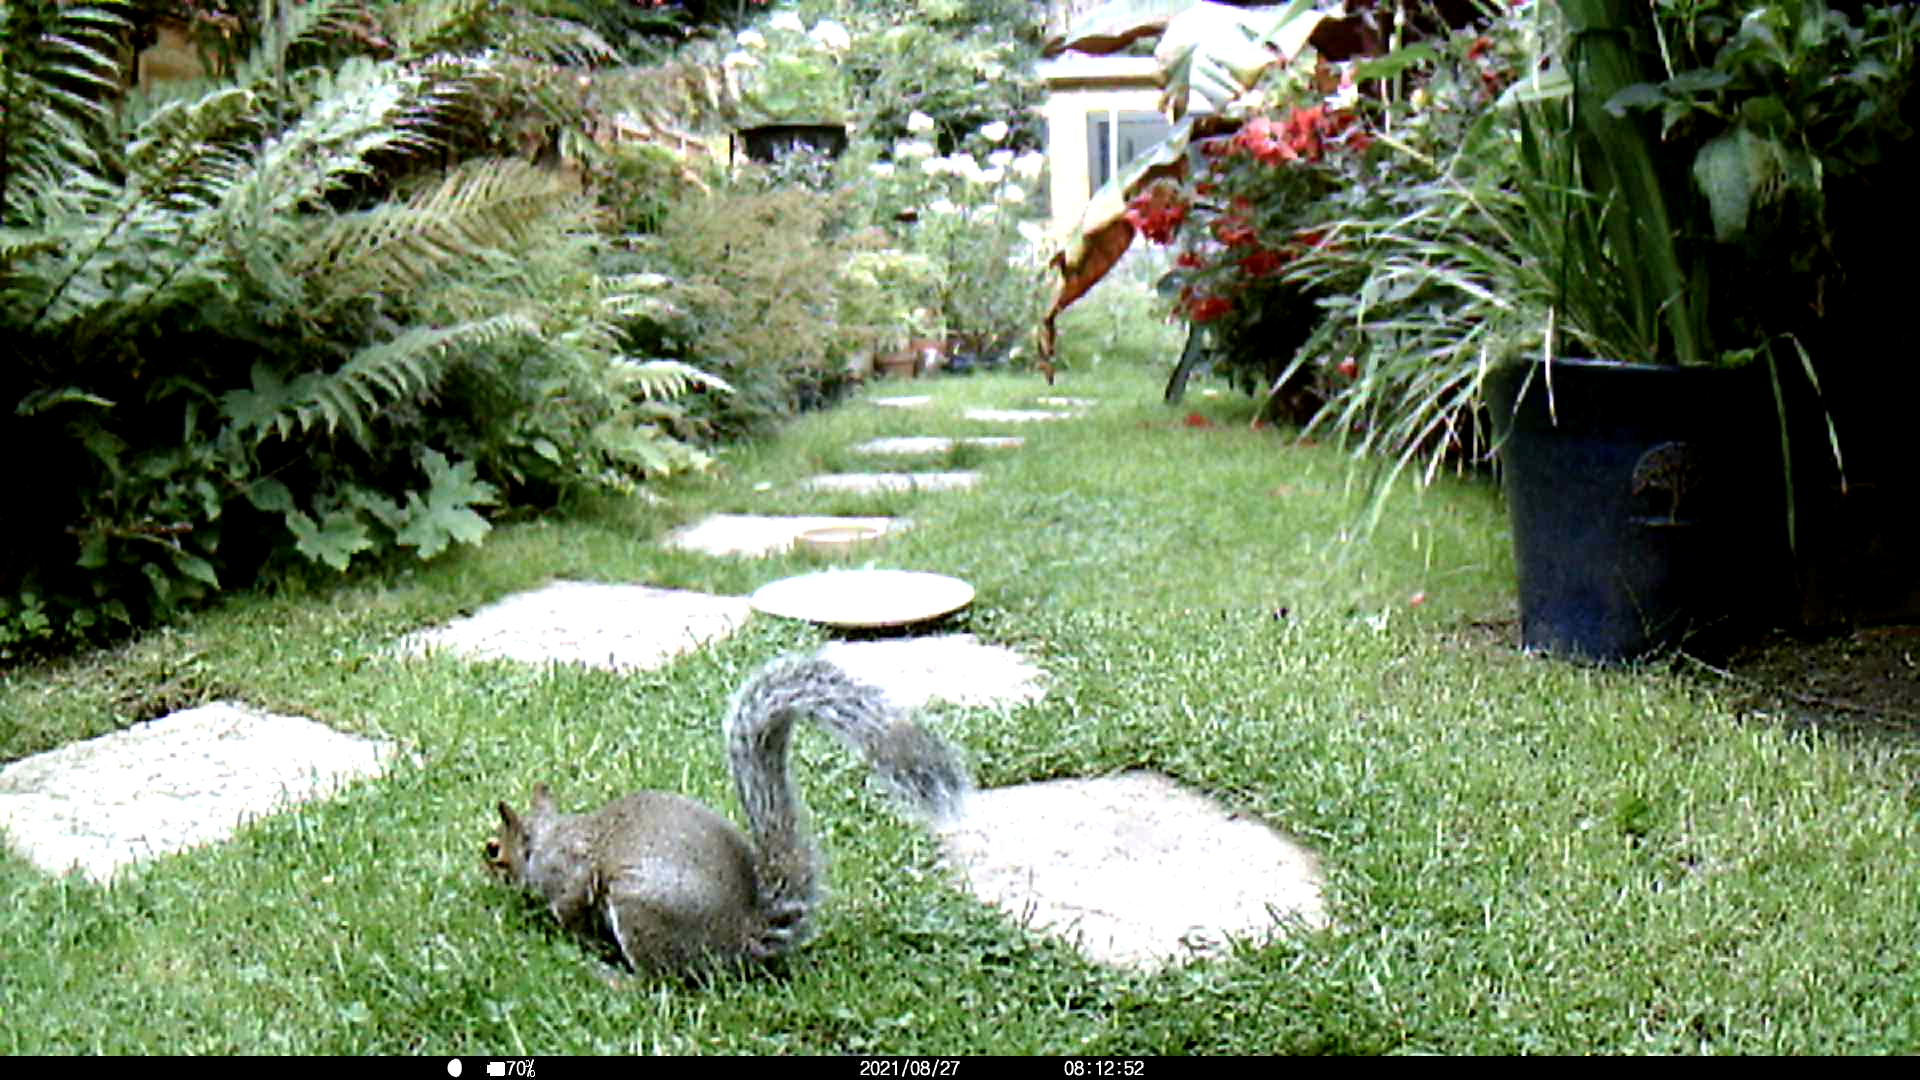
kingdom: Animalia
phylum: Chordata
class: Mammalia
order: Rodentia
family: Sciuridae
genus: Sciurus
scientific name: Sciurus carolinensis
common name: Eastern gray squirrel
